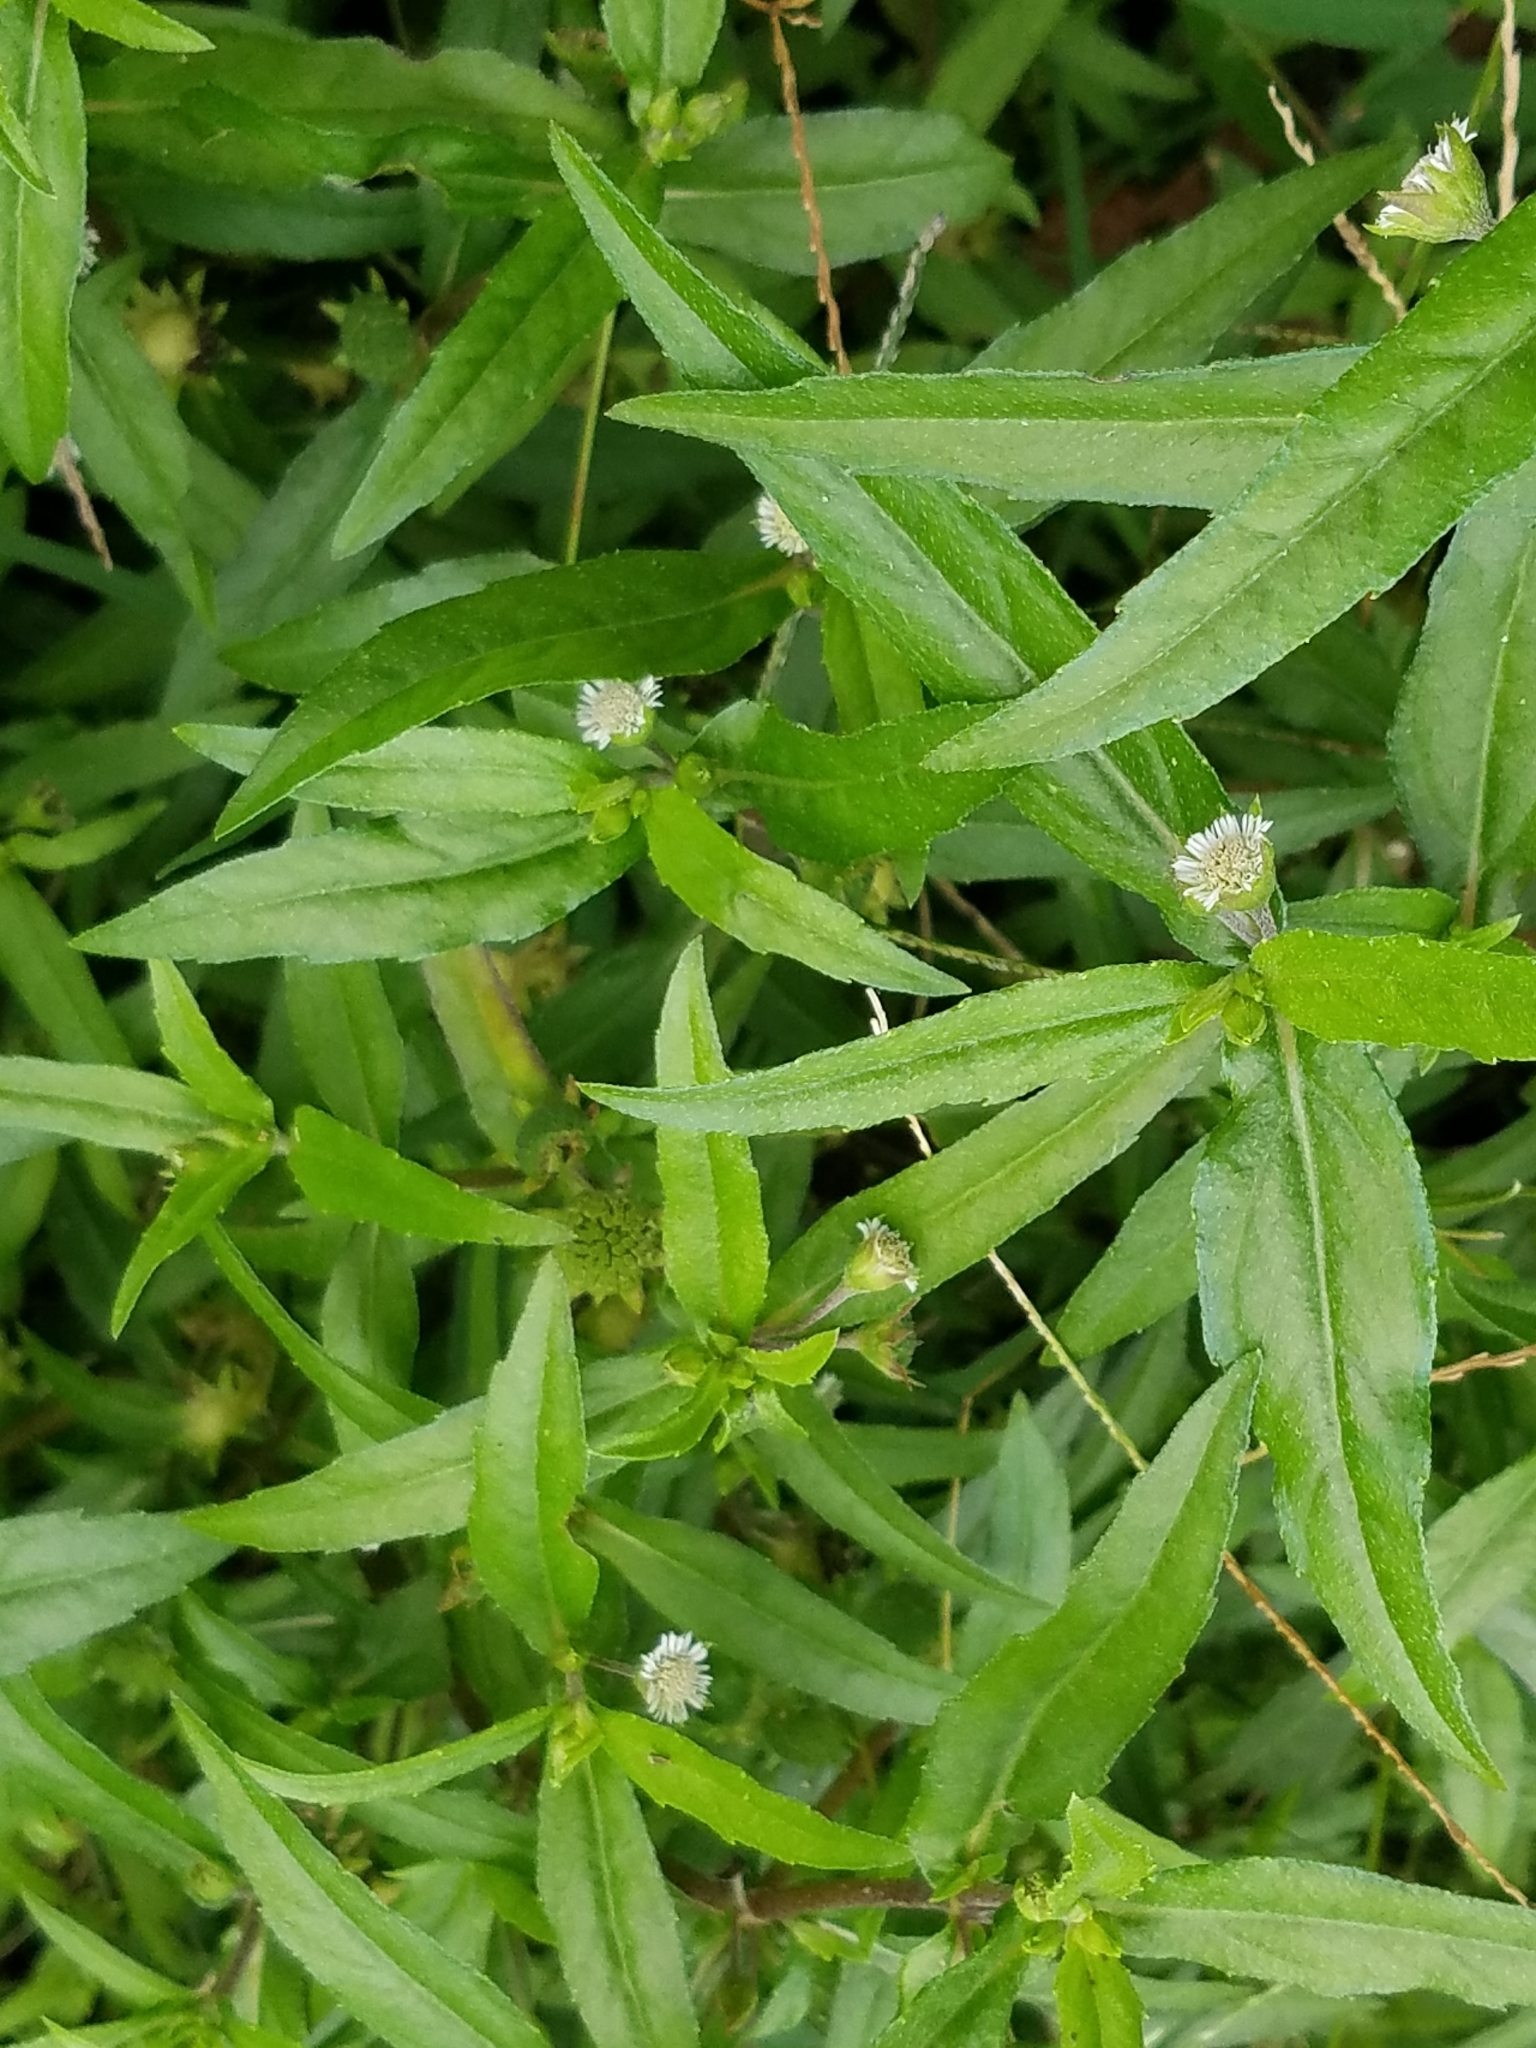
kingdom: Plantae
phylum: Tracheophyta
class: Magnoliopsida
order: Asterales
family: Asteraceae
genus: Eclipta
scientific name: Eclipta prostrata
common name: False daisy
